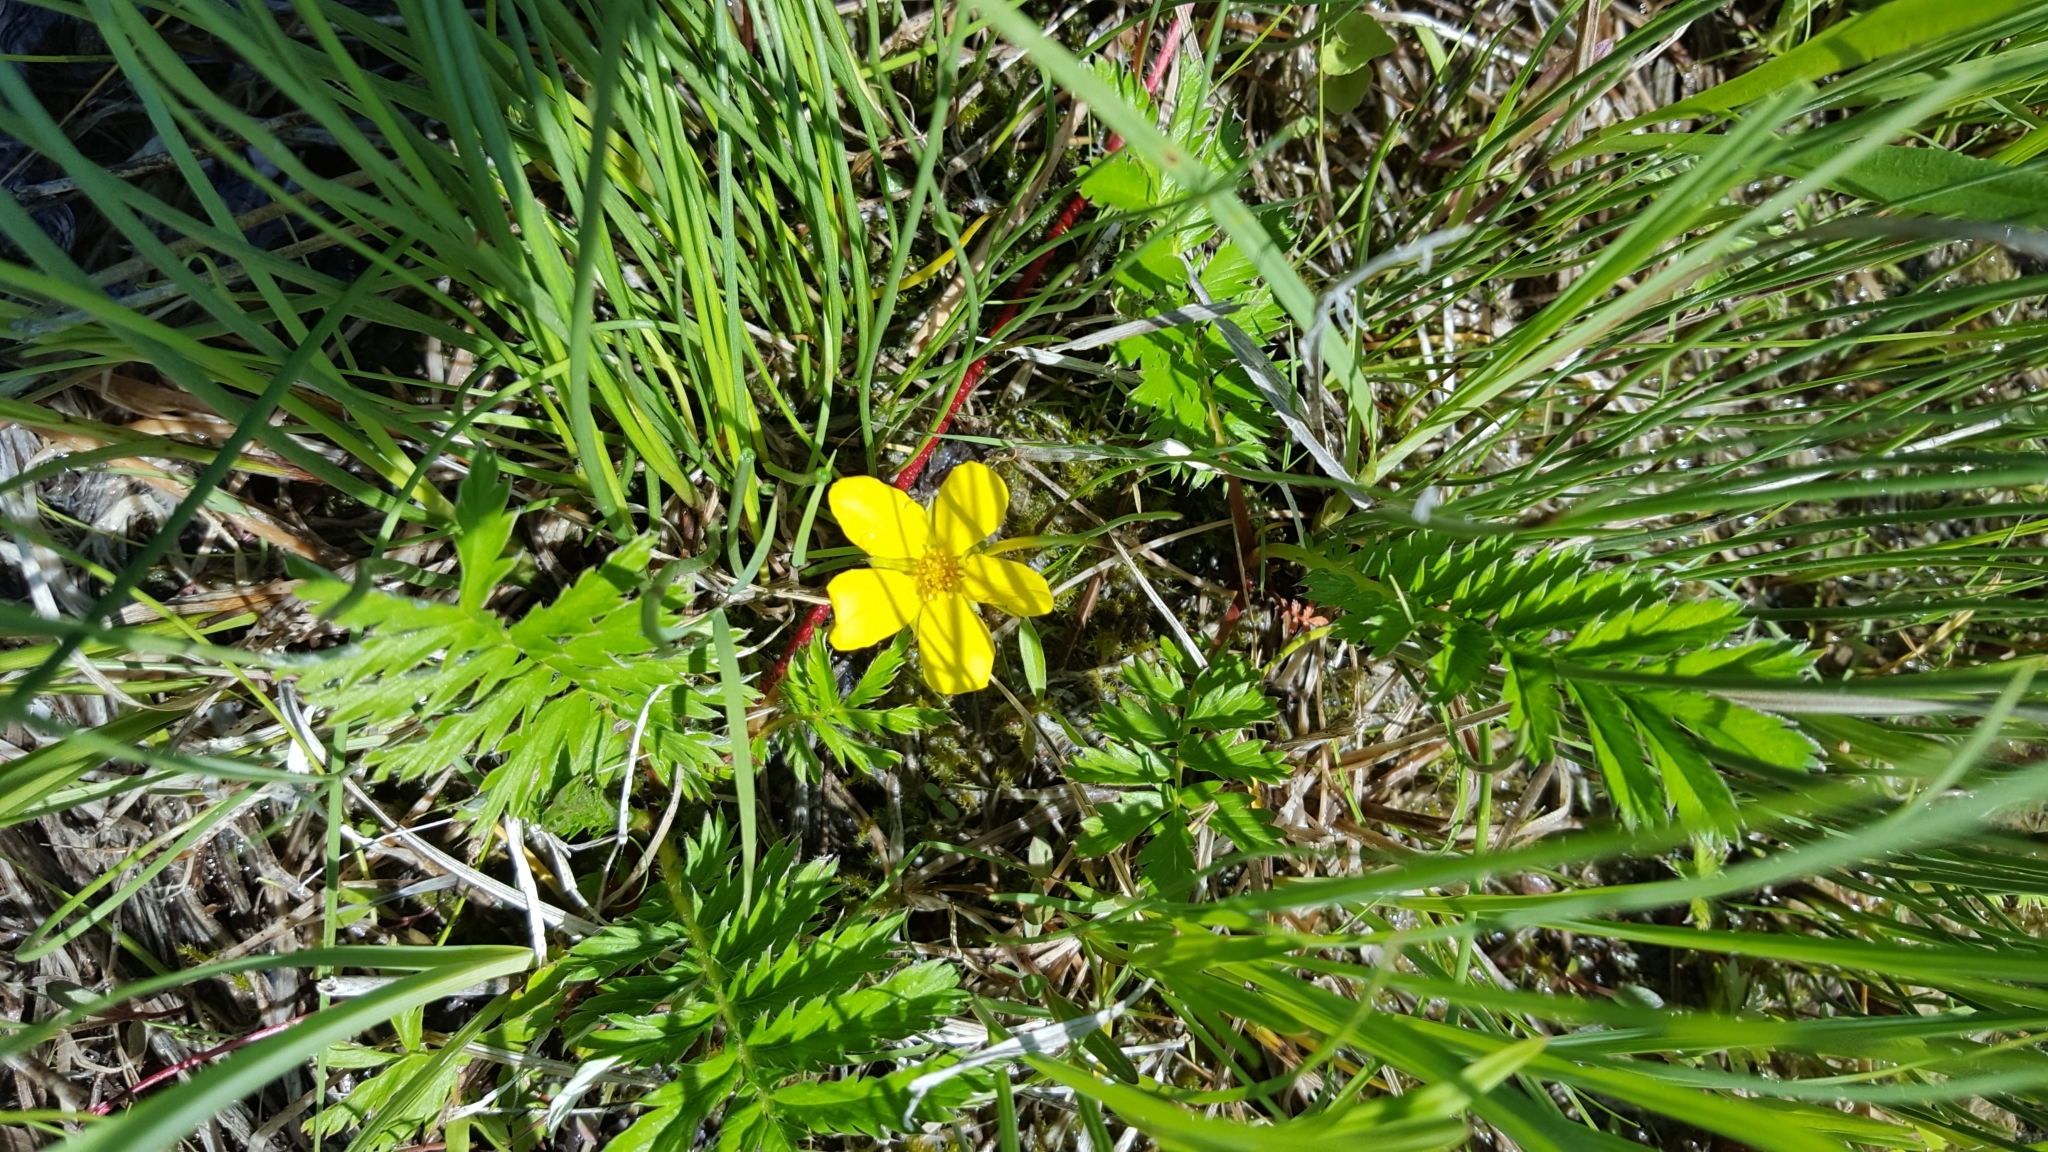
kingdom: Plantae
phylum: Tracheophyta
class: Magnoliopsida
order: Rosales
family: Rosaceae
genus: Argentina
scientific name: Argentina anserina
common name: Common silverweed
